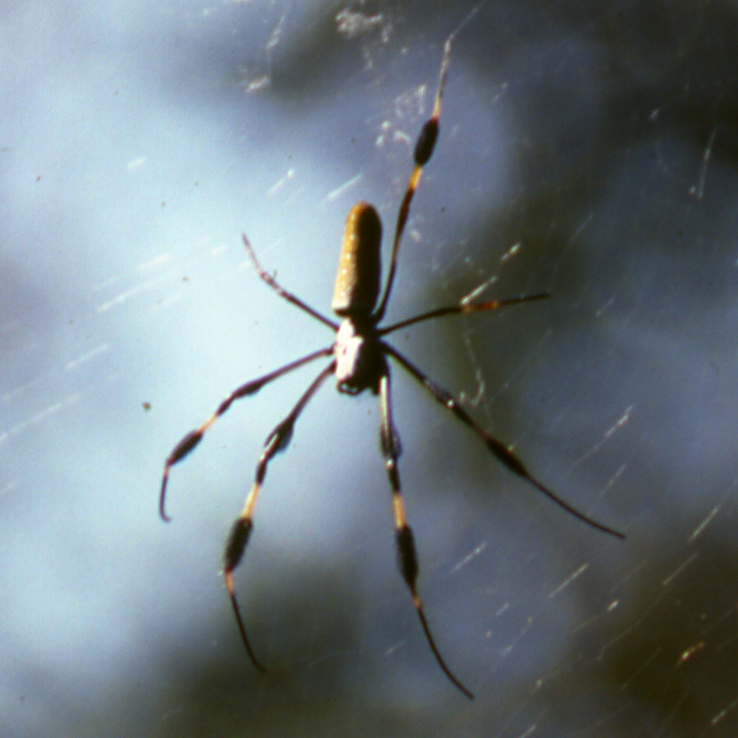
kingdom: Animalia
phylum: Arthropoda
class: Arachnida
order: Araneae
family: Araneidae
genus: Trichonephila
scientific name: Trichonephila clavipes
